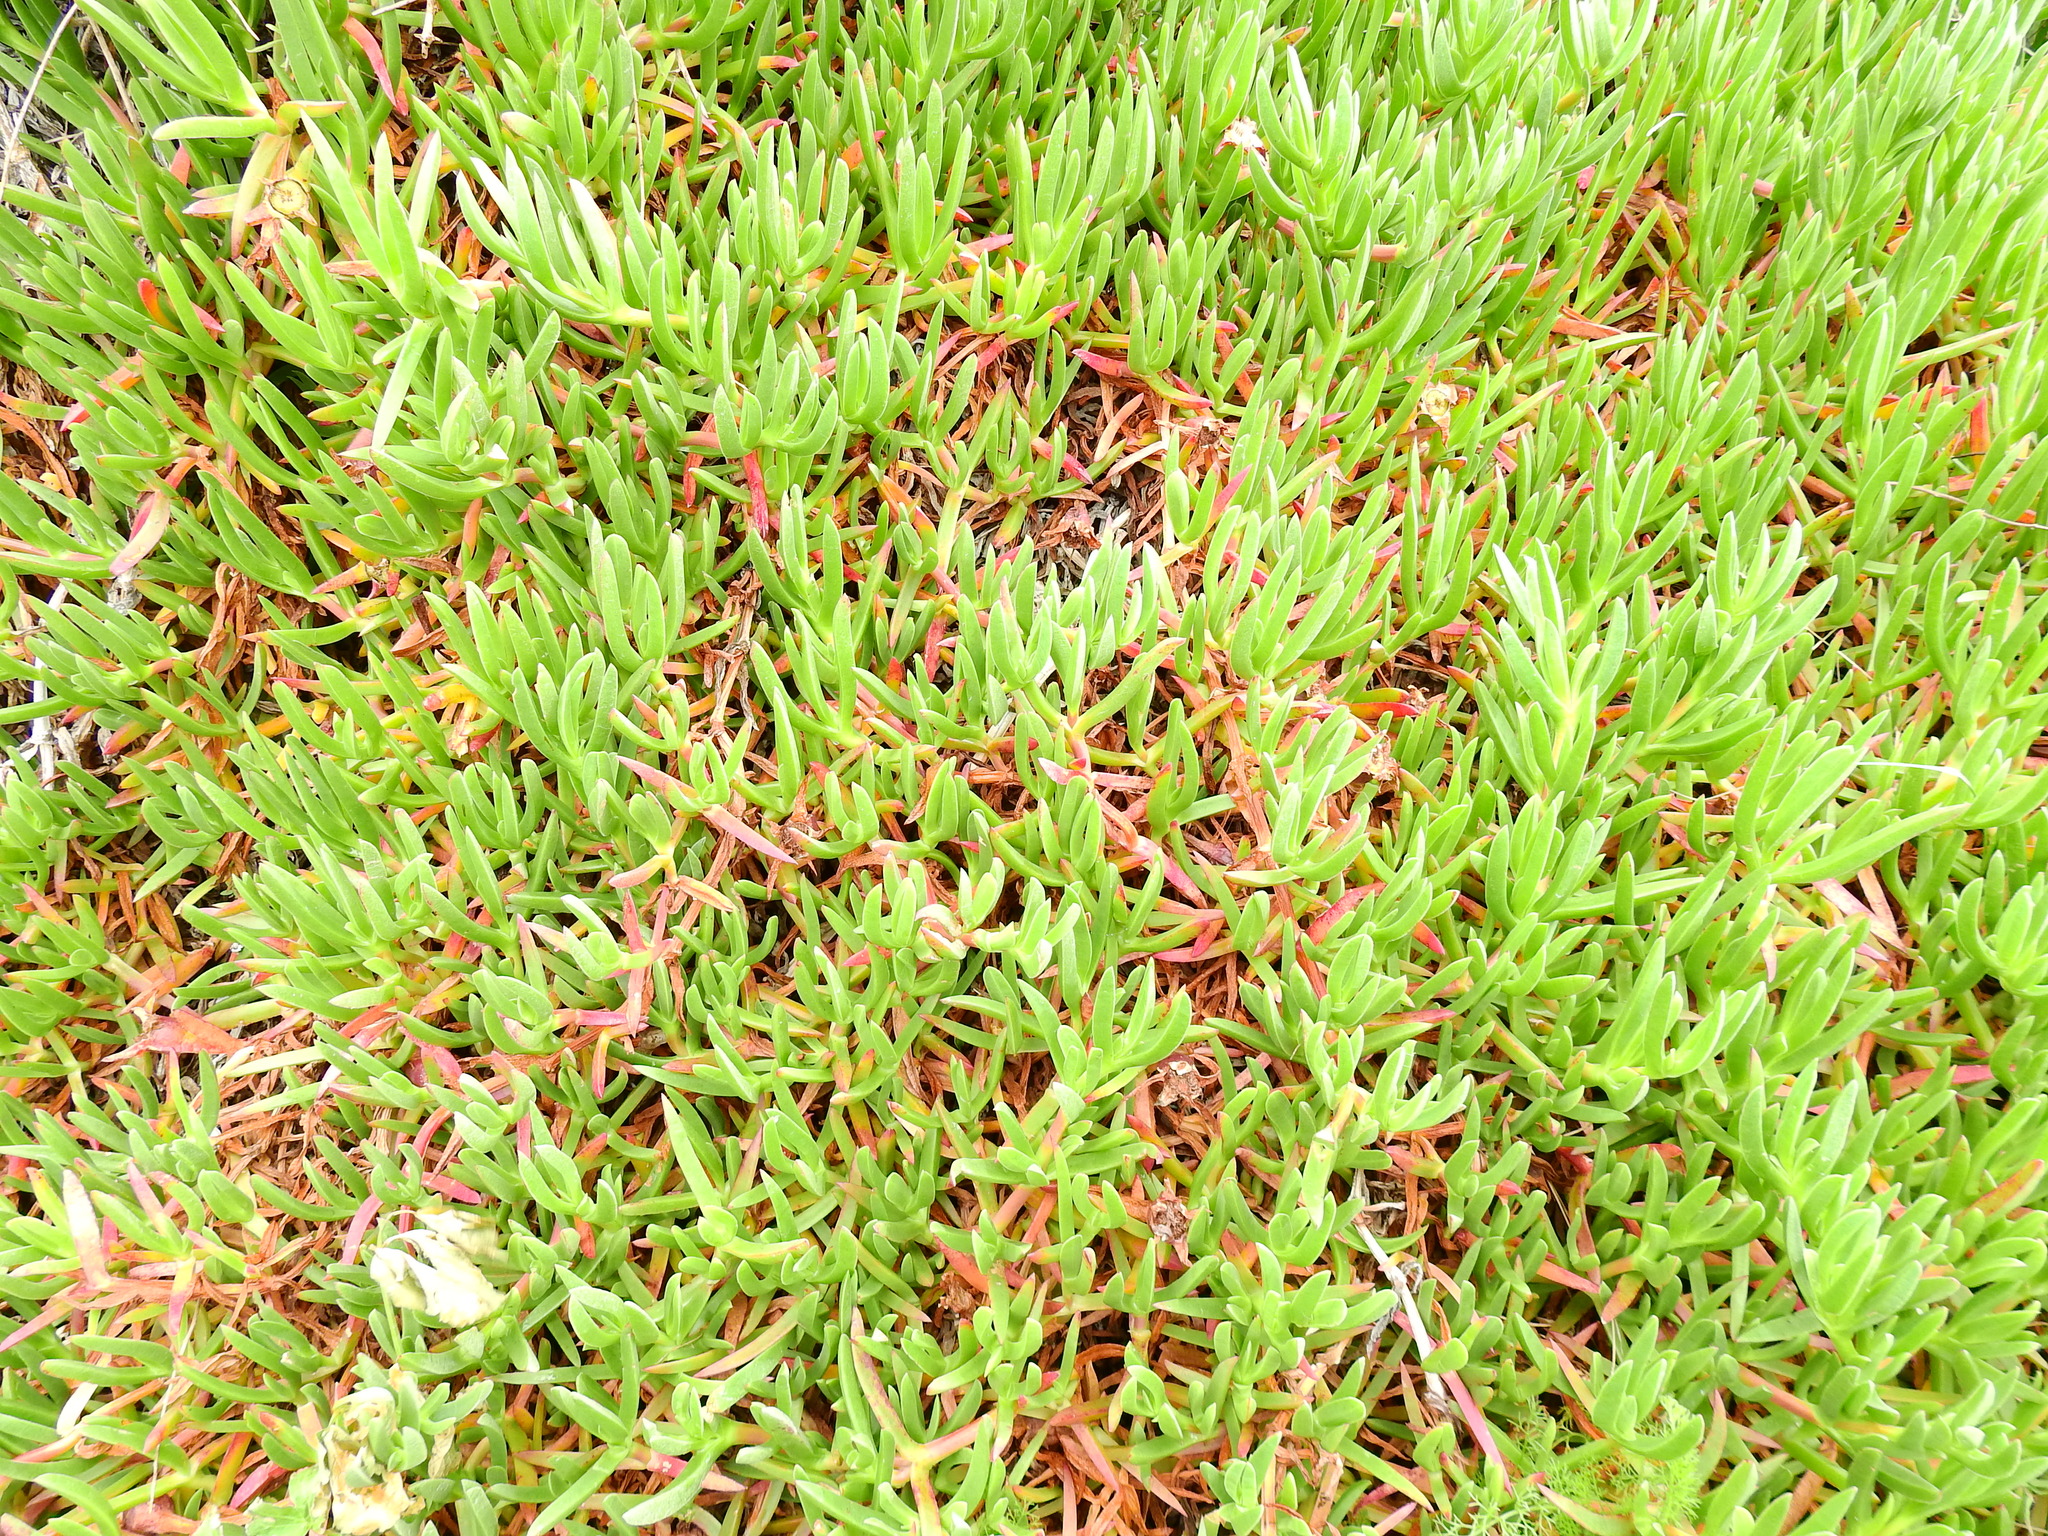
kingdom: Plantae
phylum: Tracheophyta
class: Magnoliopsida
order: Caryophyllales
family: Aizoaceae
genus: Carpobrotus
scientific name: Carpobrotus edulis
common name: Hottentot-fig
